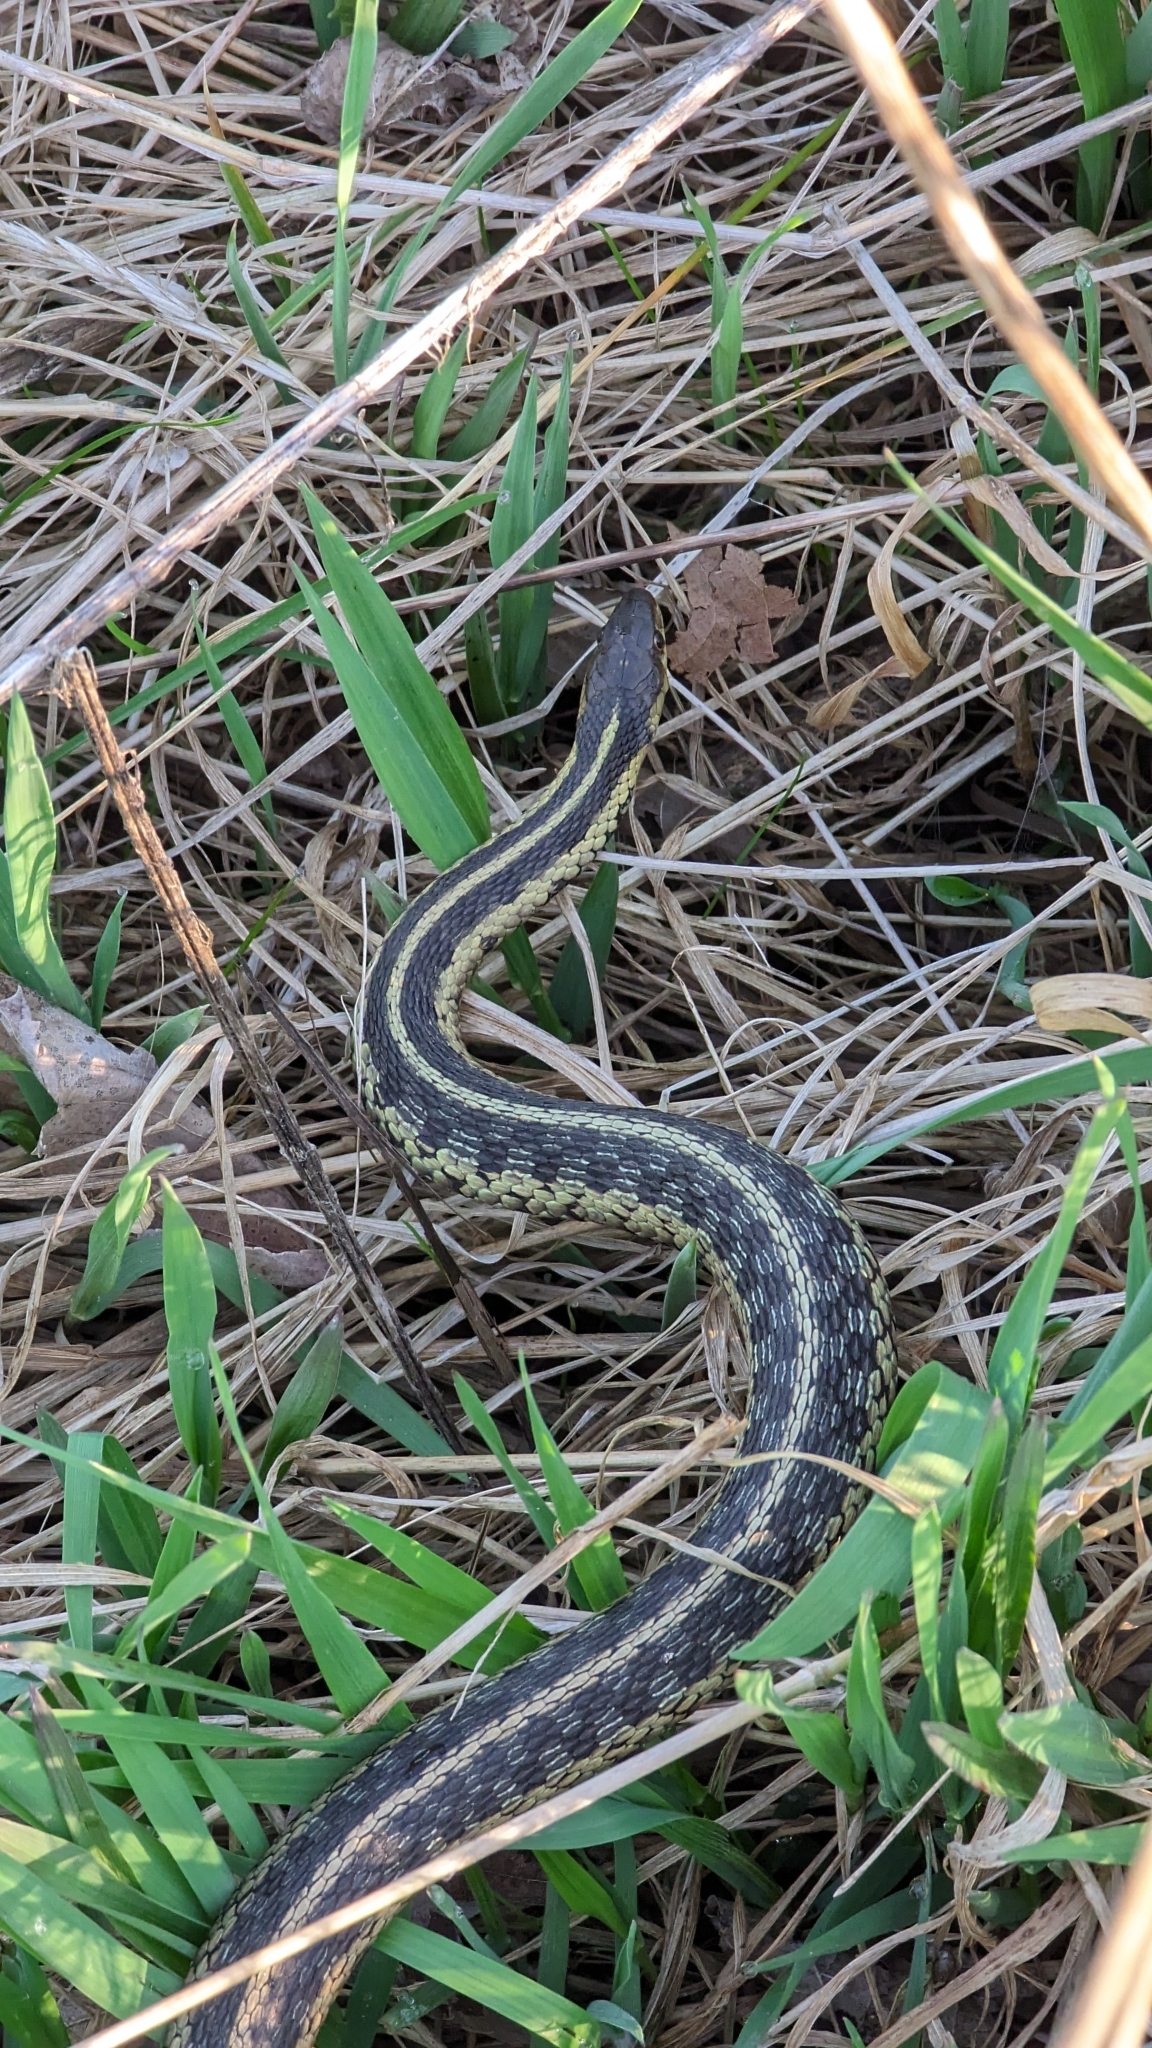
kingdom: Animalia
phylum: Chordata
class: Squamata
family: Colubridae
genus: Thamnophis
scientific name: Thamnophis sirtalis
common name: Common garter snake
